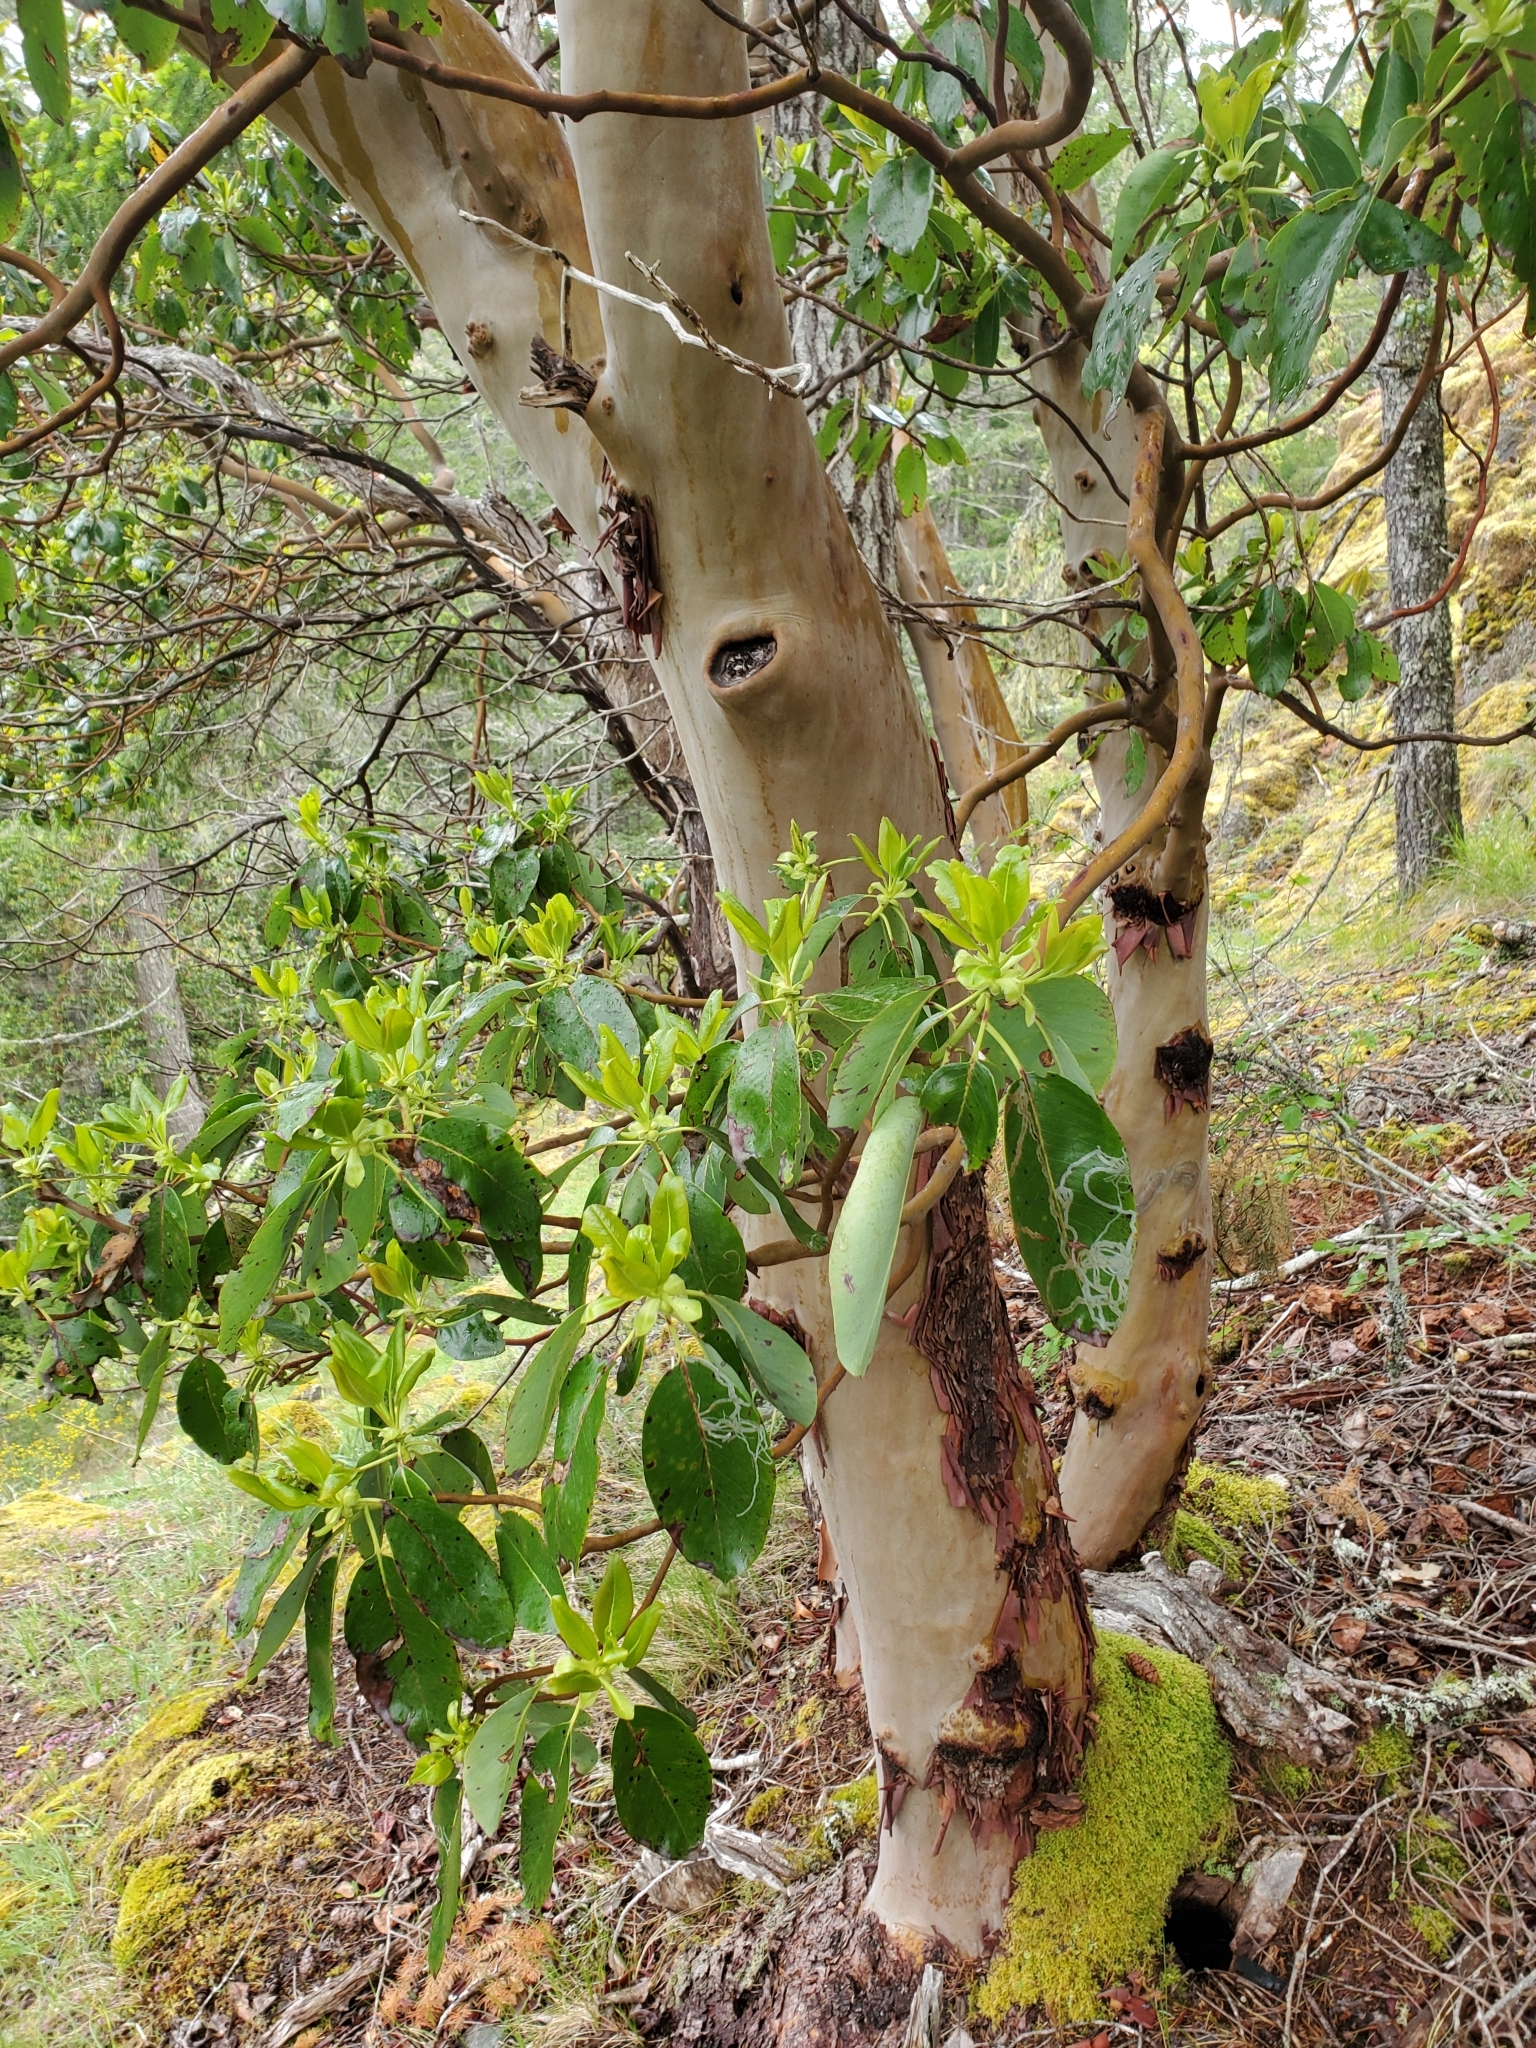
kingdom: Plantae
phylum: Tracheophyta
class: Magnoliopsida
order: Ericales
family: Ericaceae
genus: Arbutus
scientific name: Arbutus menziesii
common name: Pacific madrone
